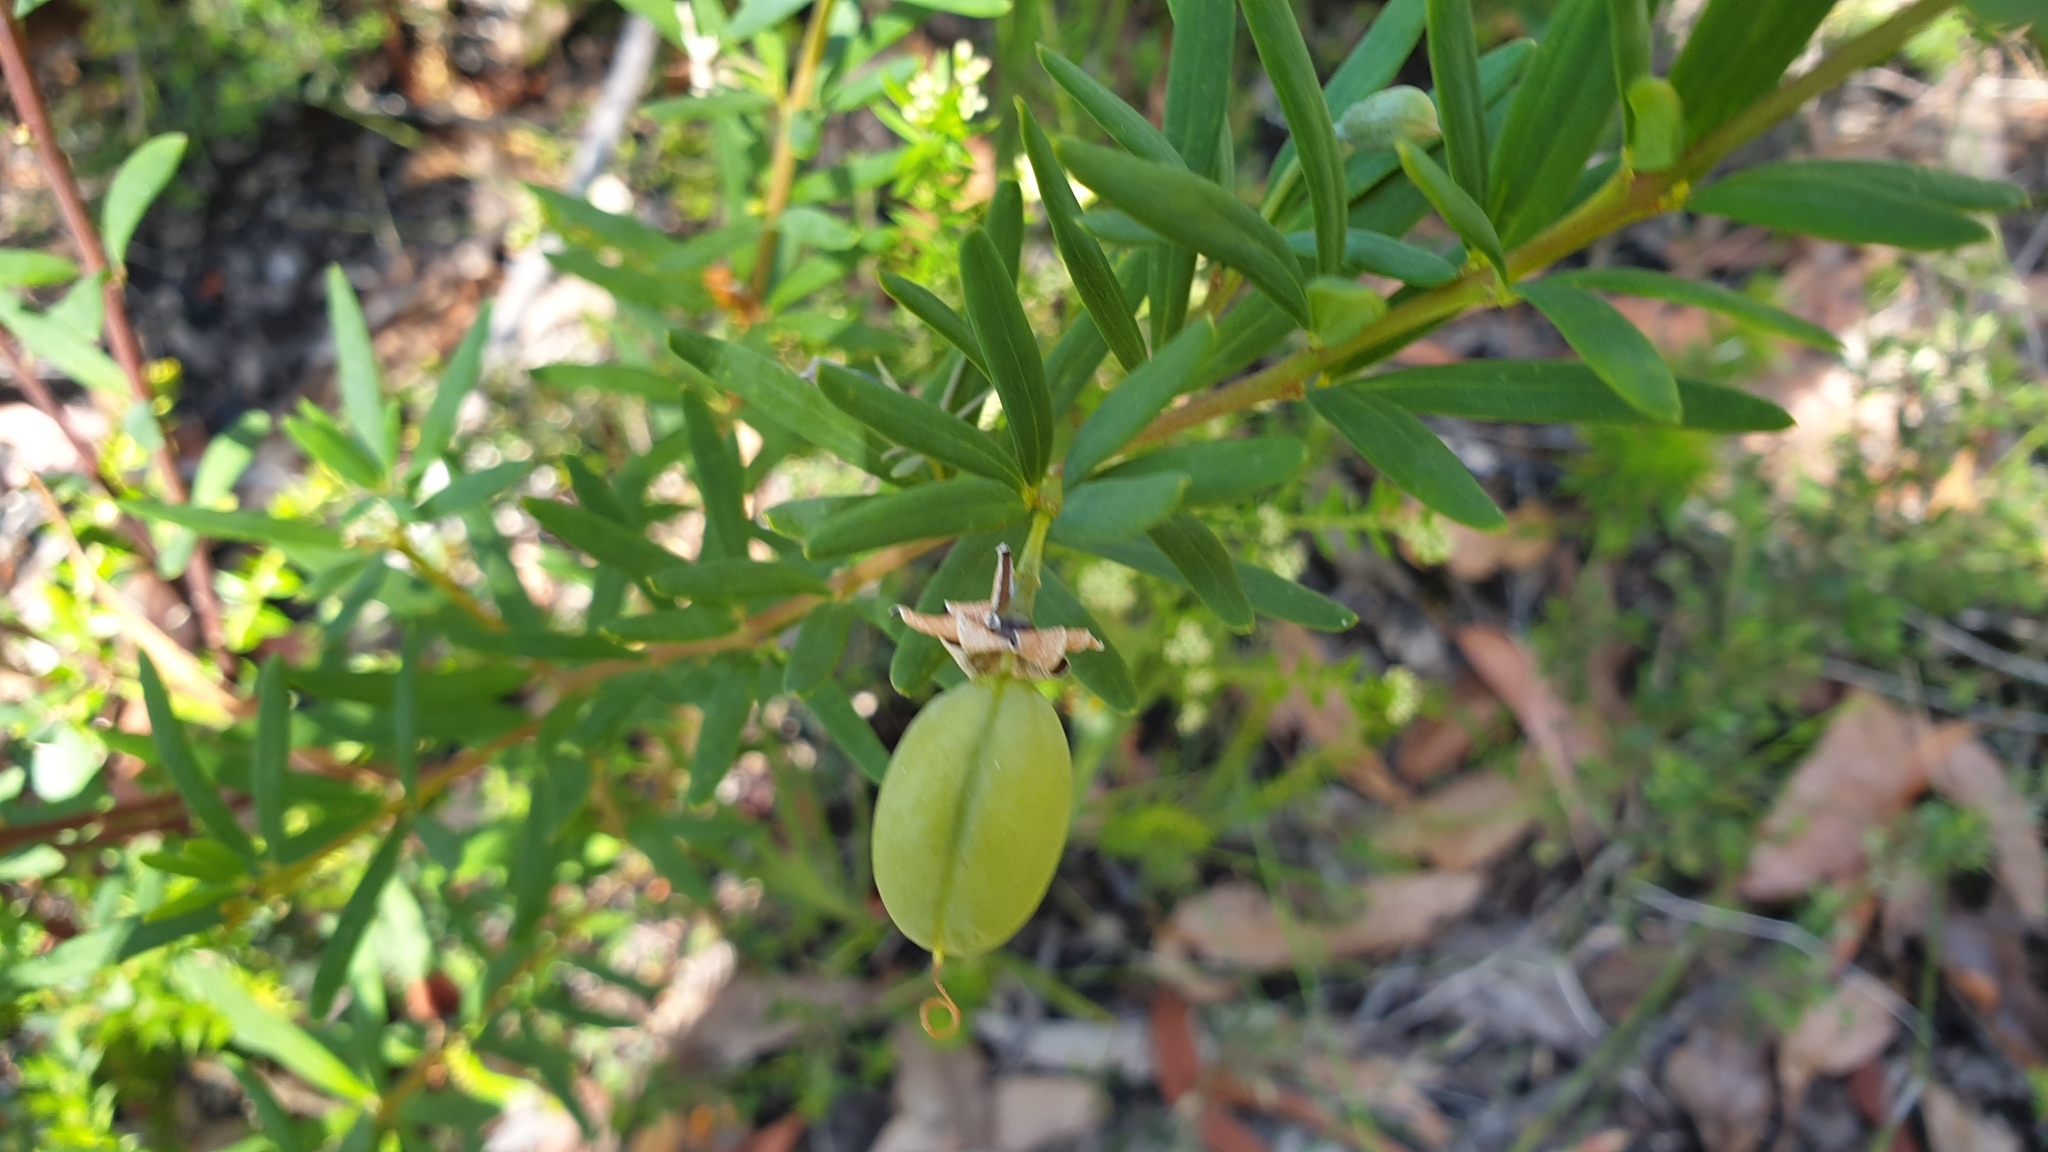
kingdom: Plantae
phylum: Tracheophyta
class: Magnoliopsida
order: Fabales
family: Fabaceae
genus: Gompholobium
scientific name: Gompholobium latifolium
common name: Broadleaf wedge-pea
